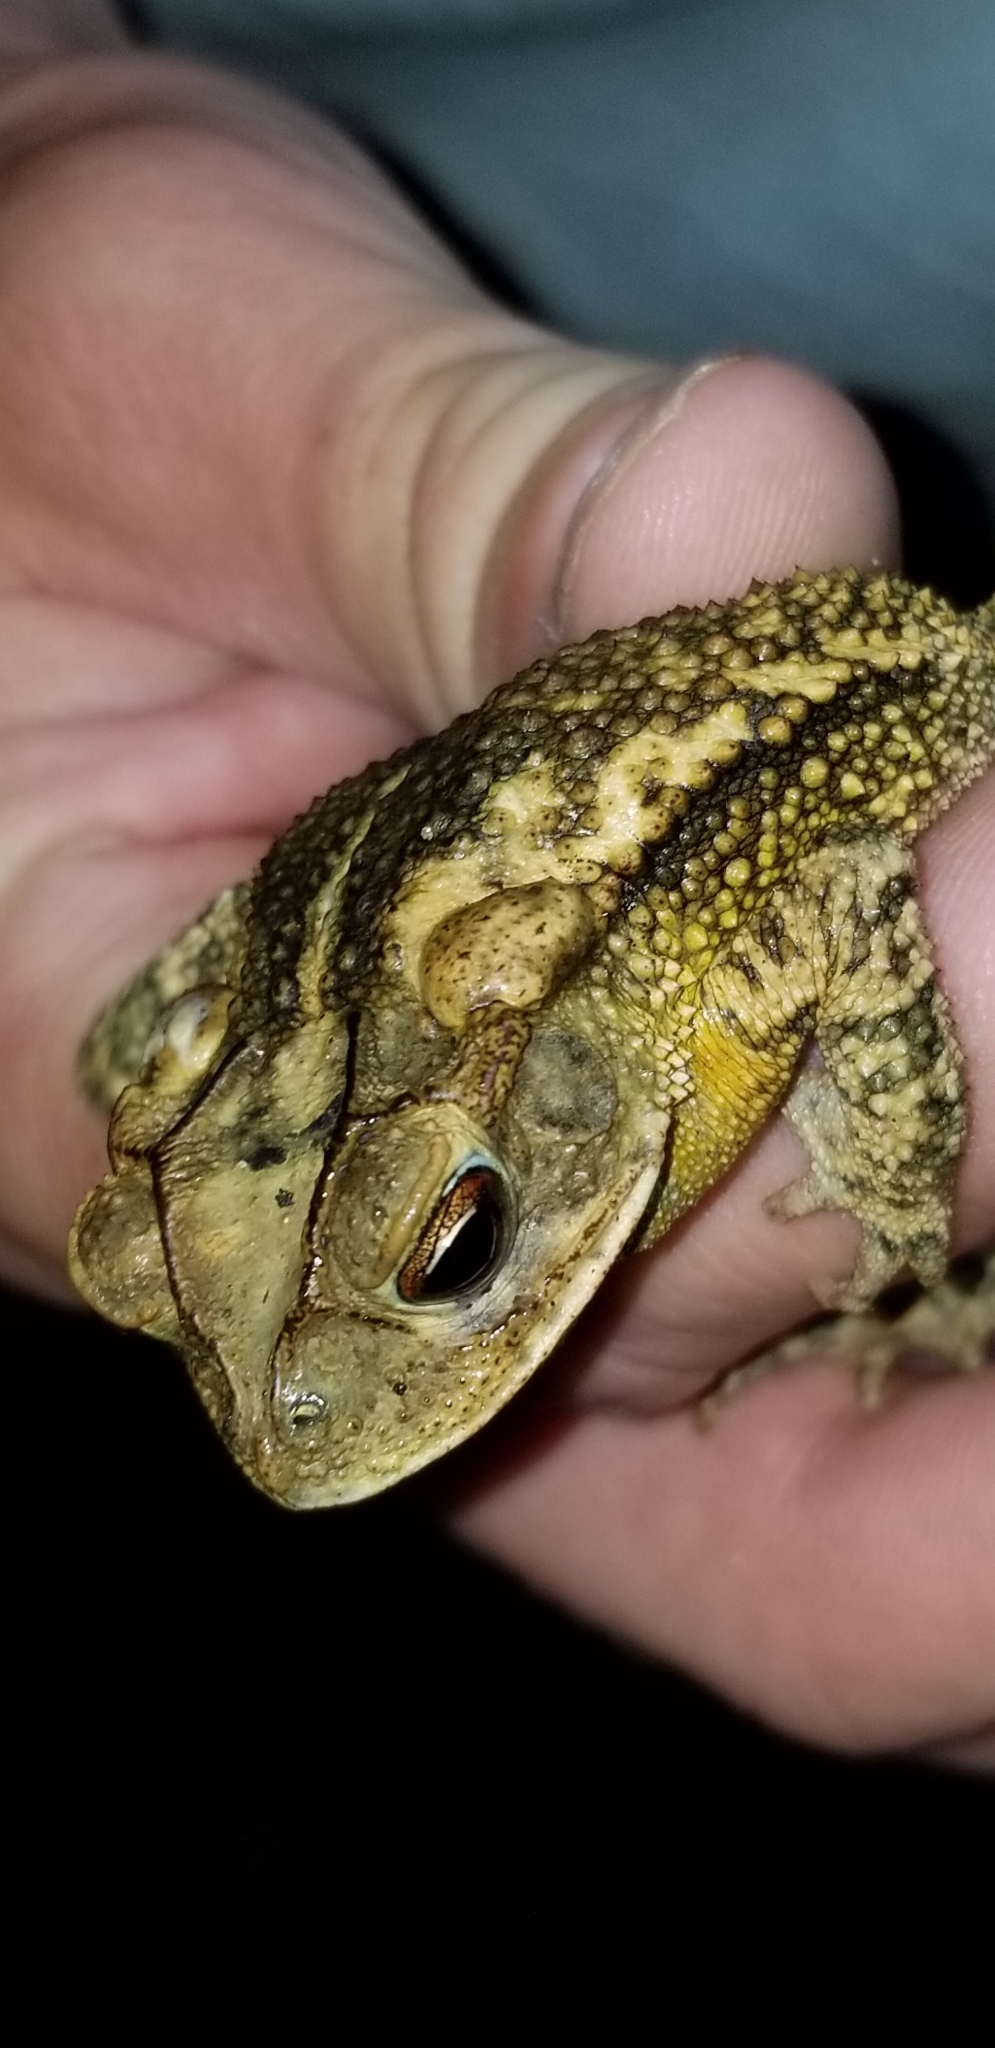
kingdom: Animalia
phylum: Chordata
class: Amphibia
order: Anura
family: Bufonidae
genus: Incilius
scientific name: Incilius nebulifer
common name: Gulf coast toad
